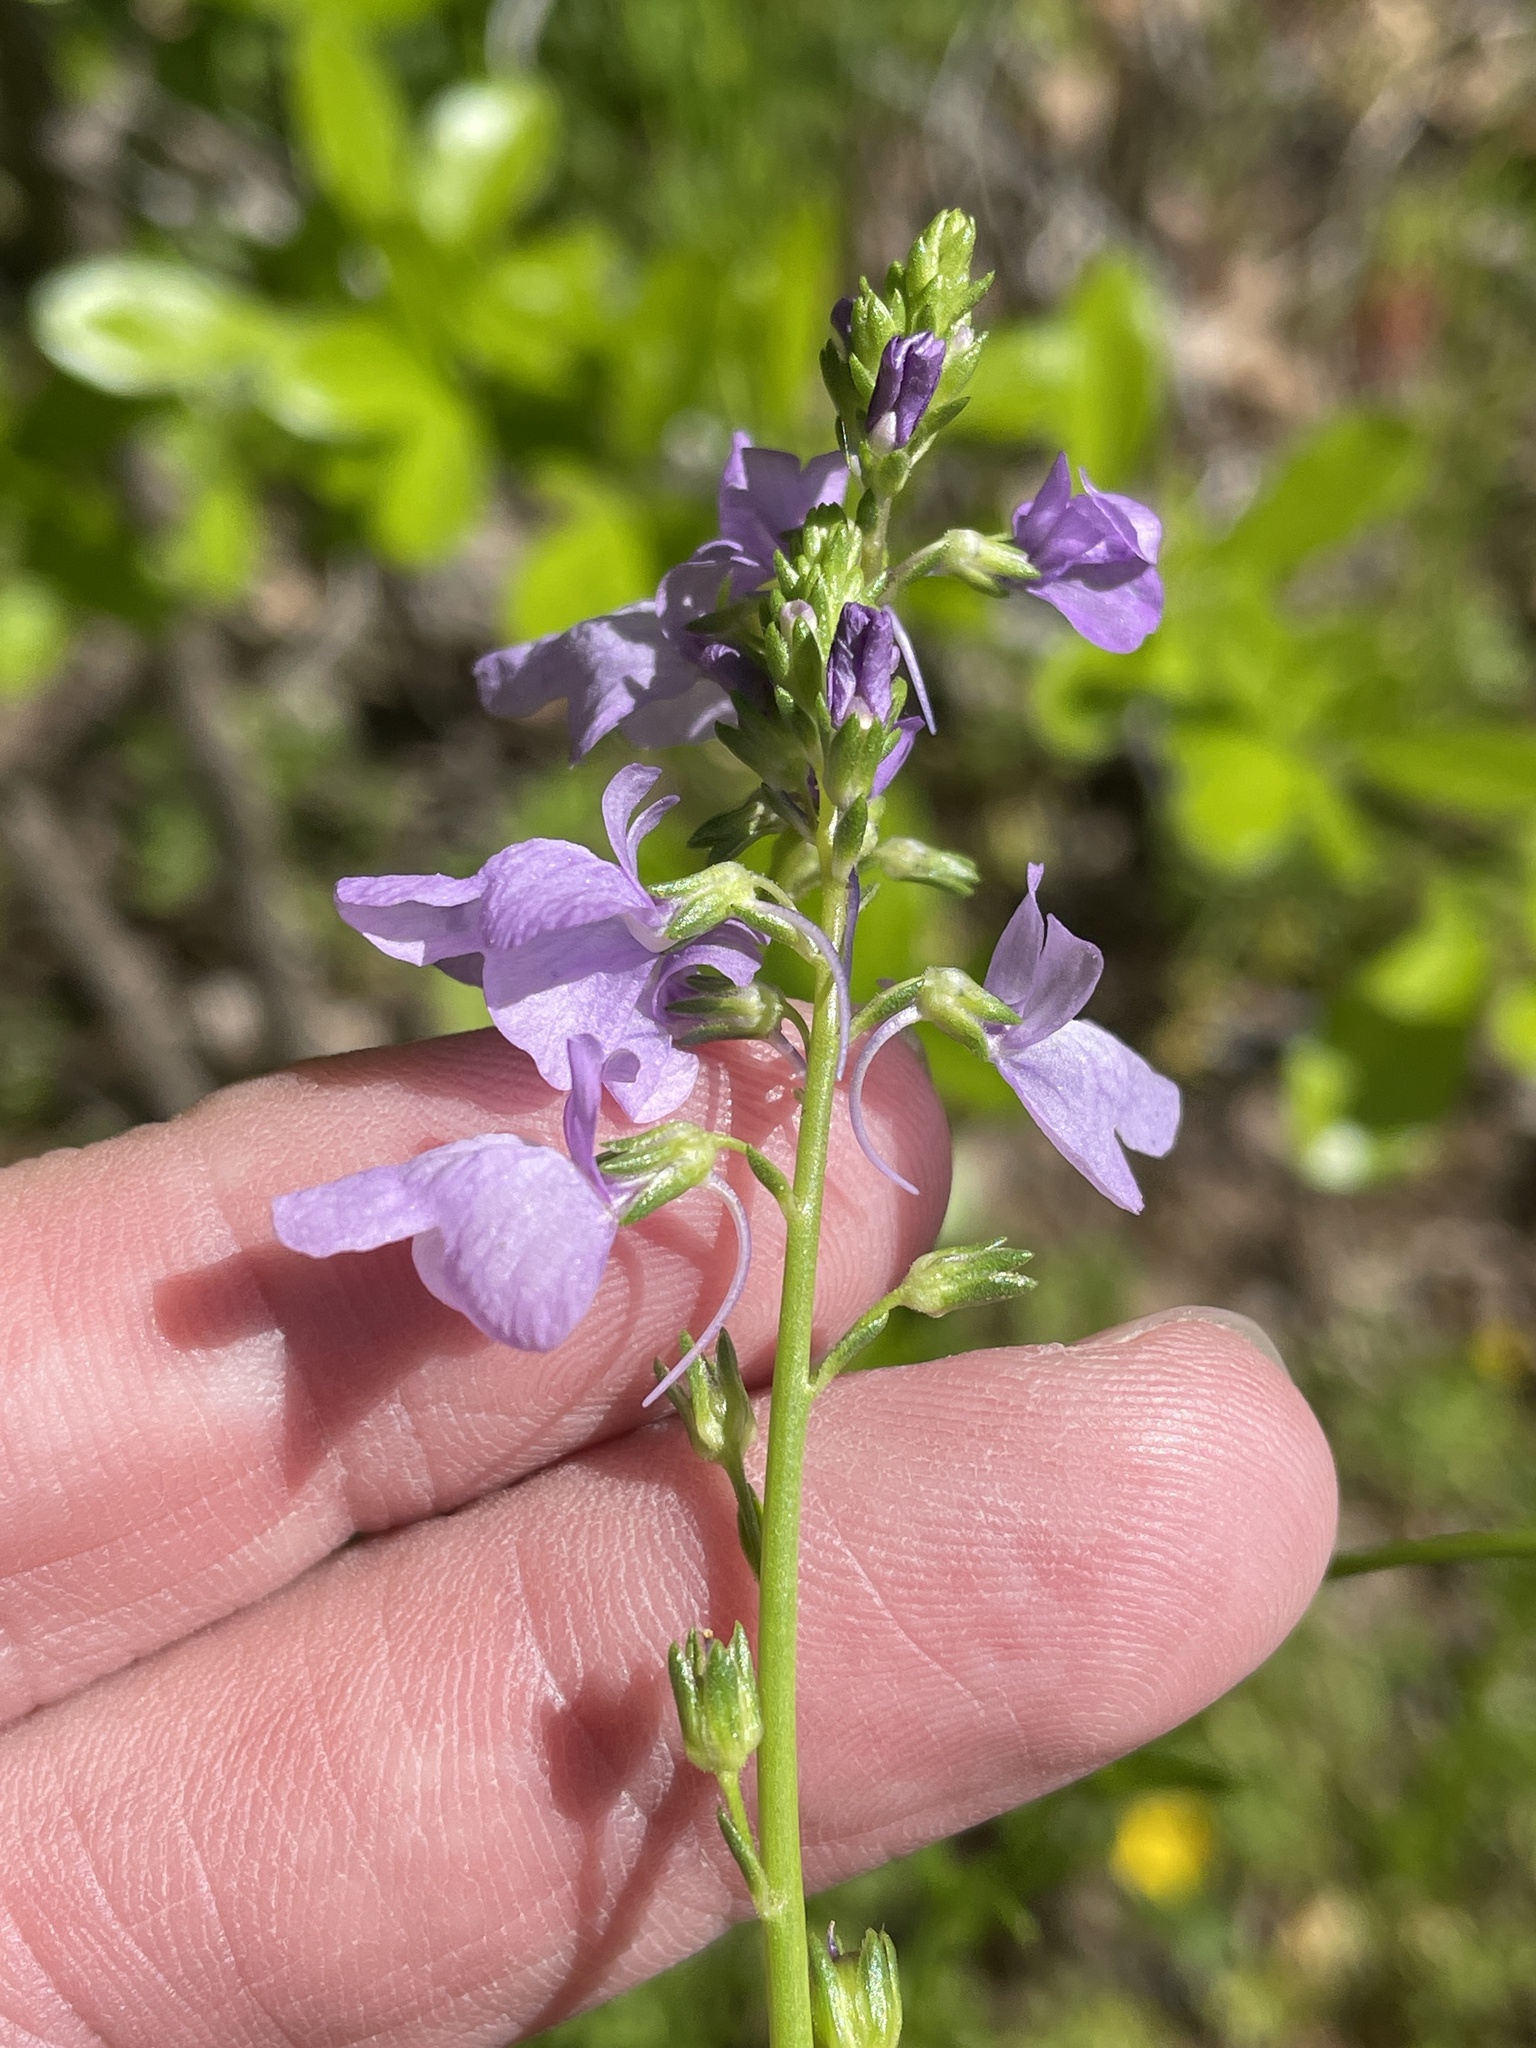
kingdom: Plantae
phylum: Tracheophyta
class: Magnoliopsida
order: Lamiales
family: Plantaginaceae
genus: Nuttallanthus
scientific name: Nuttallanthus texanus
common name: Texas toadflax
